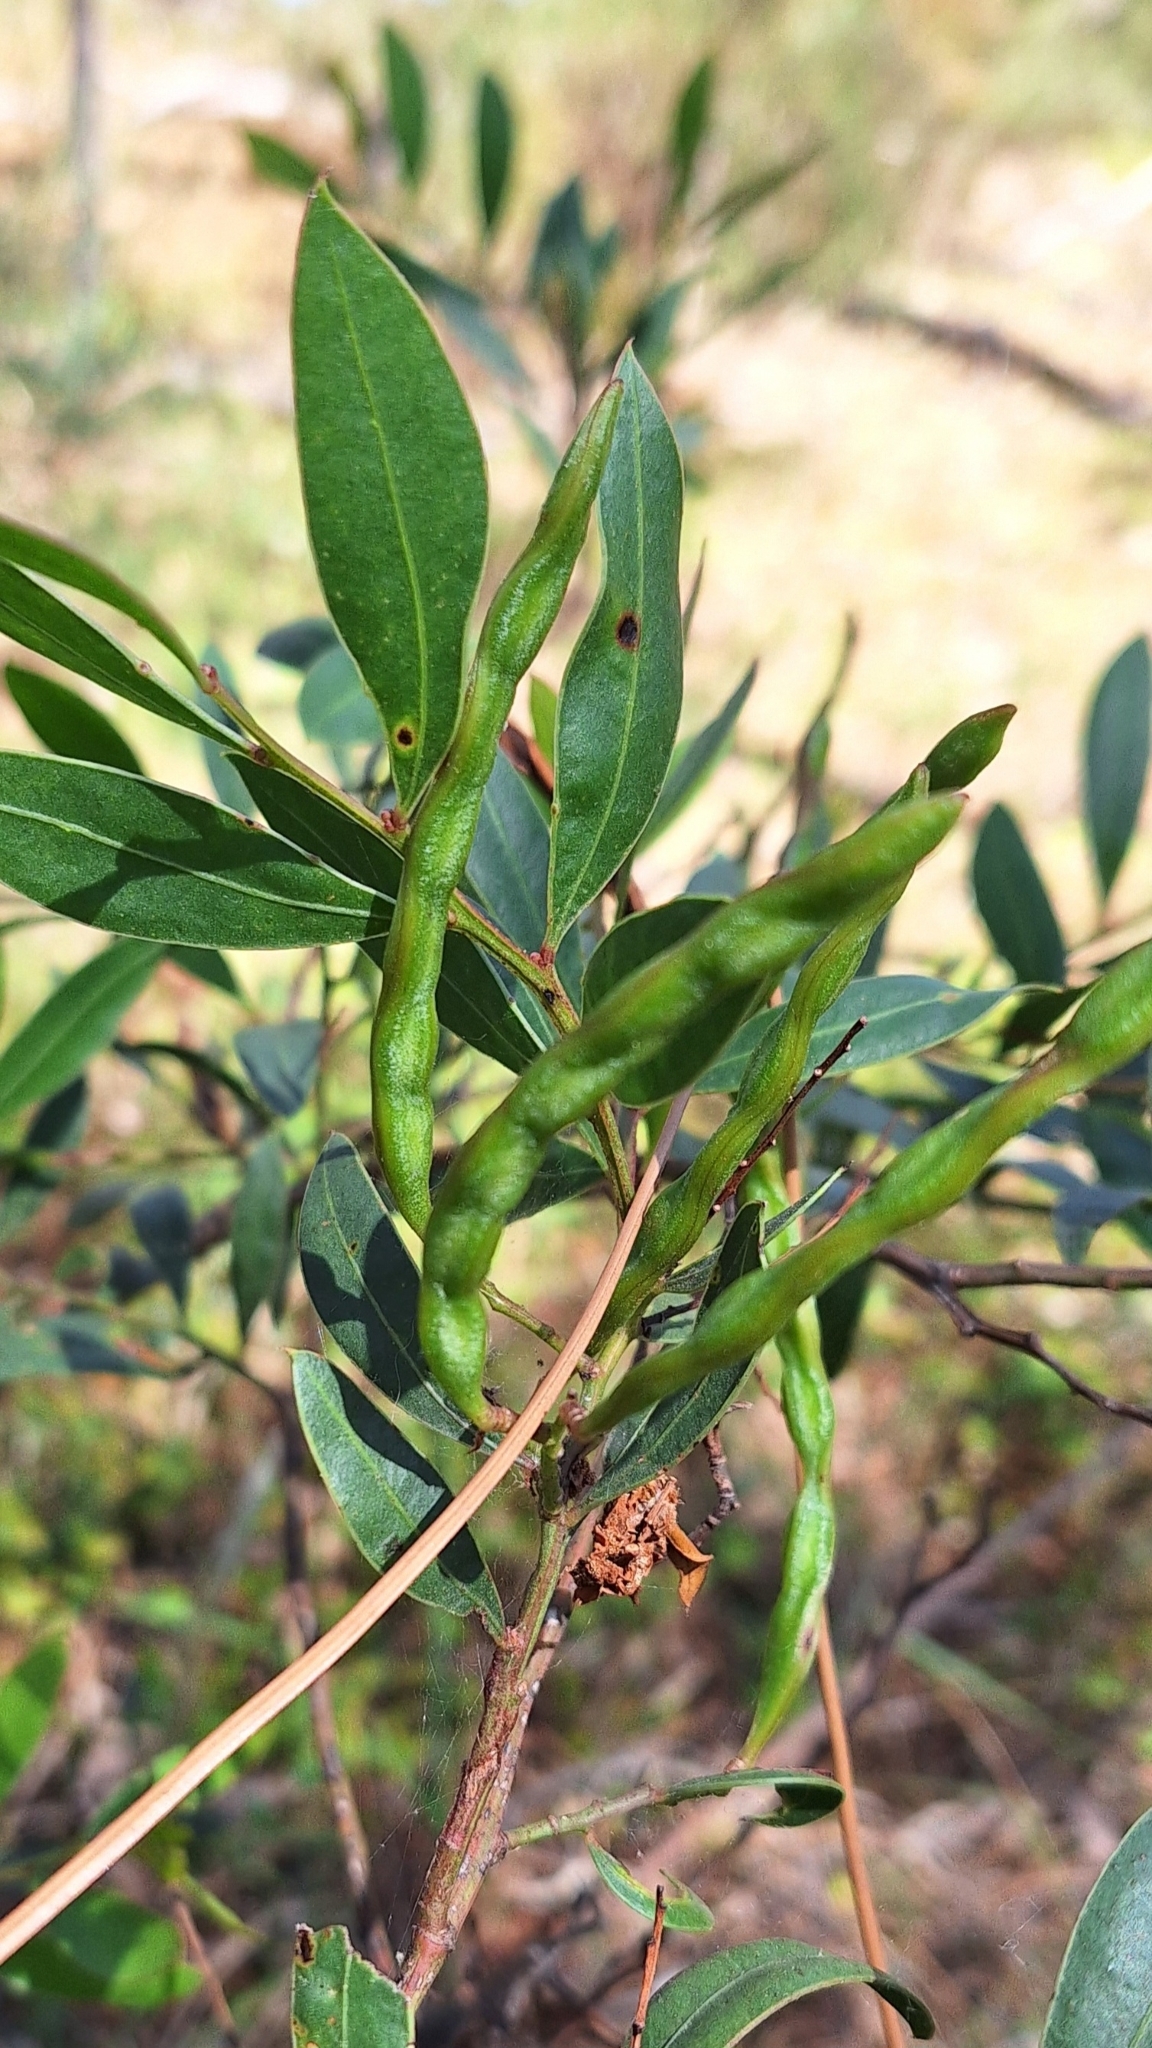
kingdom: Plantae
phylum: Tracheophyta
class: Magnoliopsida
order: Fabales
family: Fabaceae
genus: Acacia
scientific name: Acacia myrtifolia
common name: Myrtle wattle
